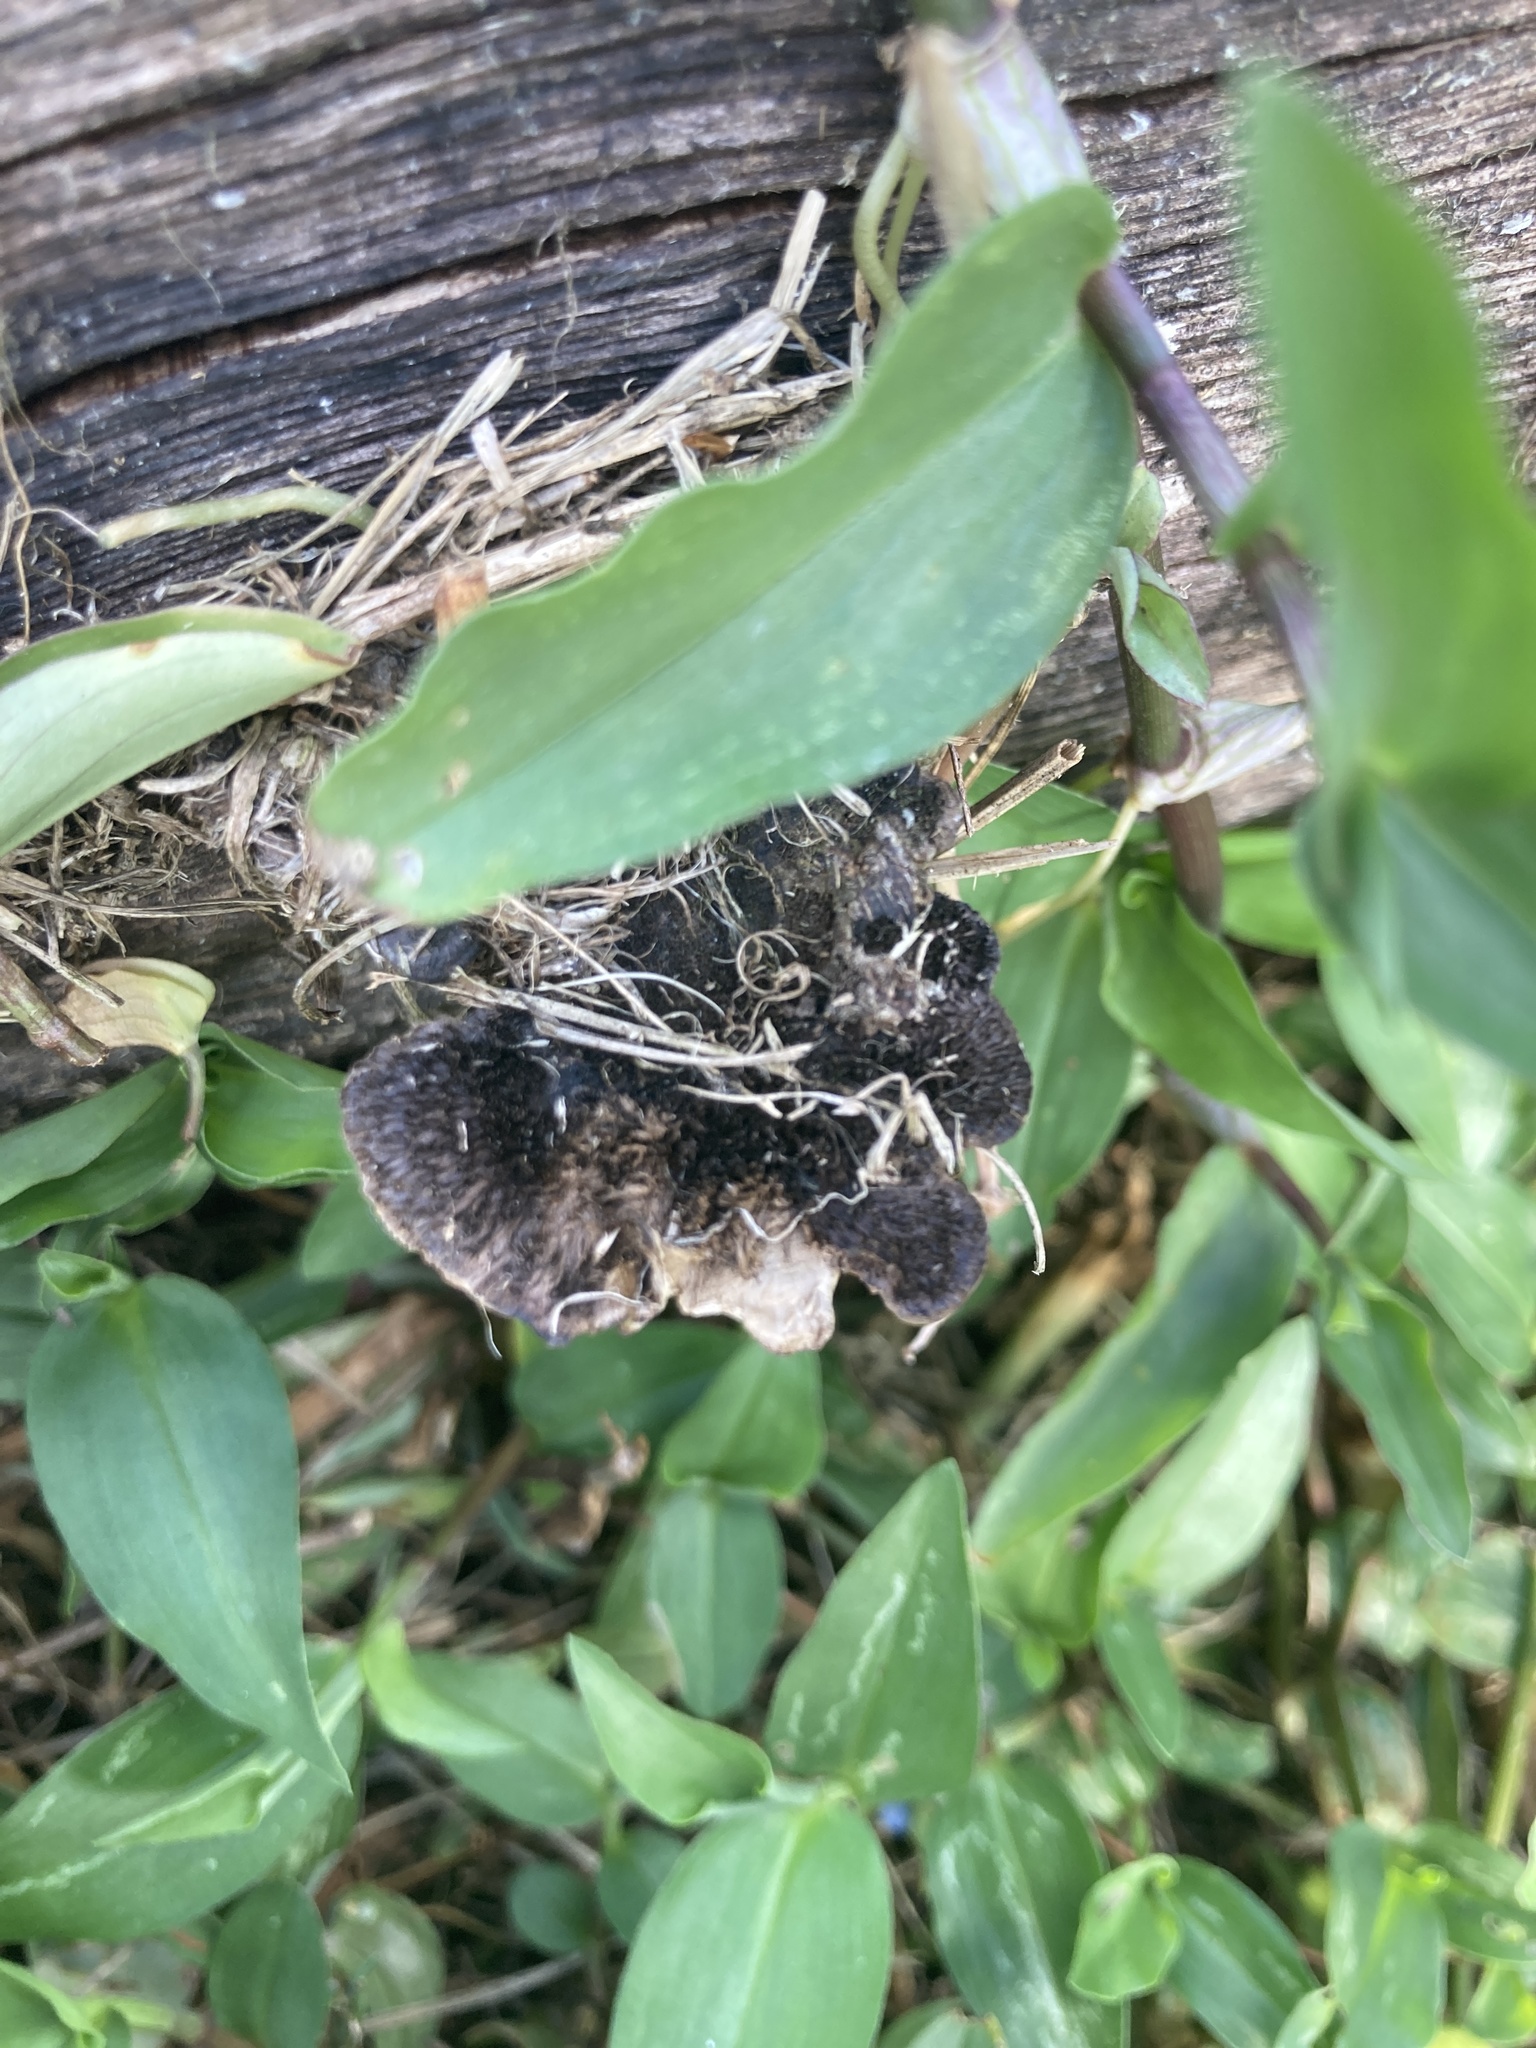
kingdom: Fungi
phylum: Basidiomycota
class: Agaricomycetes
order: Polyporales
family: Cerrenaceae
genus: Cerrena
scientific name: Cerrena hydnoides
